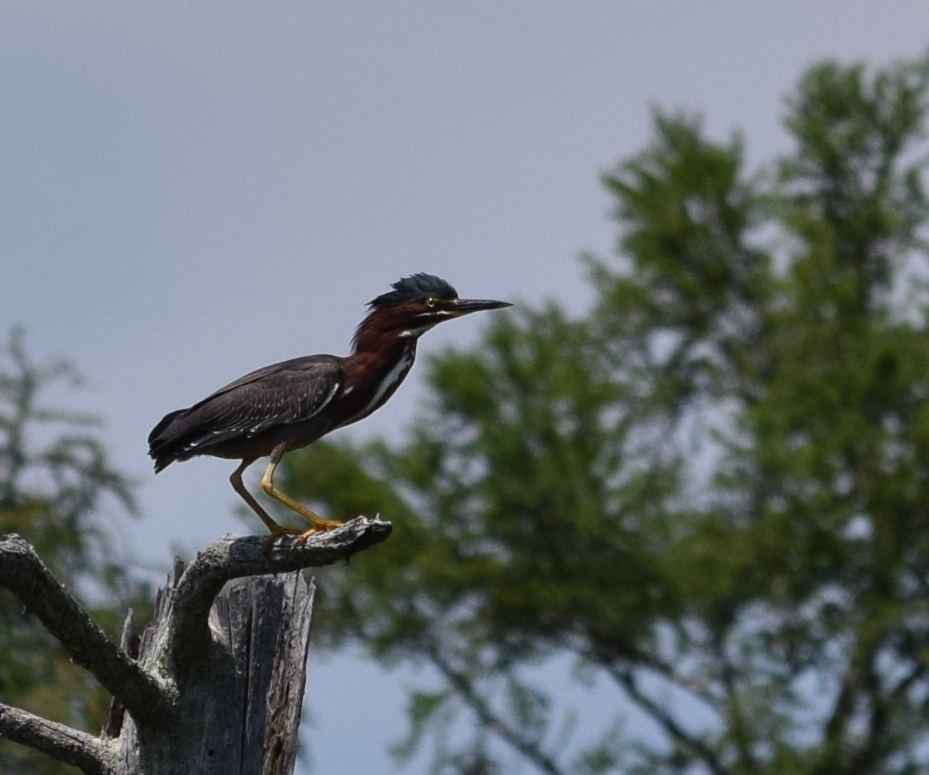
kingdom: Animalia
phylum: Chordata
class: Aves
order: Pelecaniformes
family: Ardeidae
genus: Butorides
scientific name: Butorides virescens
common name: Green heron
